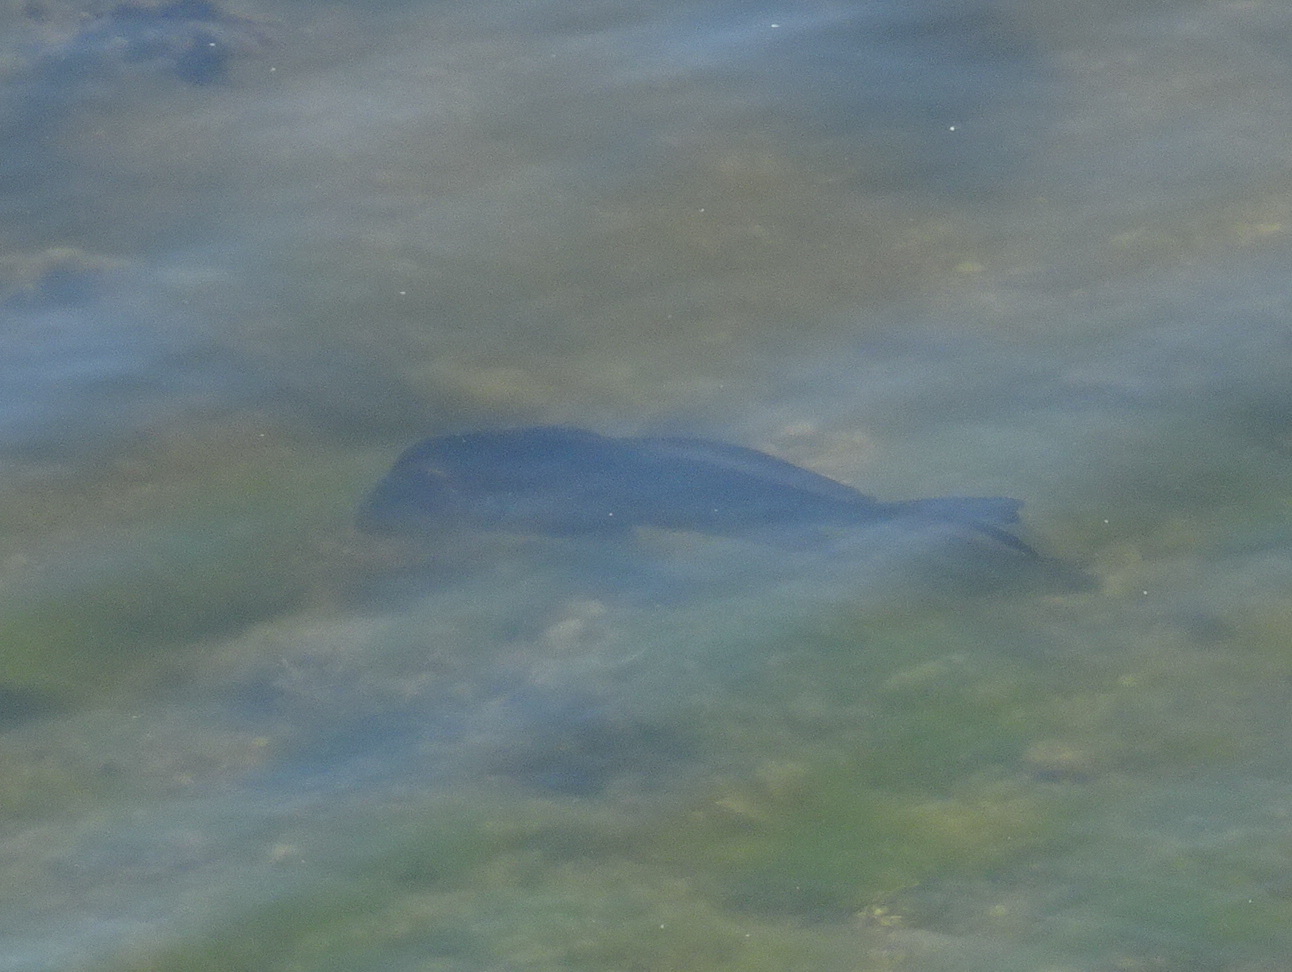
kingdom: Animalia
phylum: Chordata
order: Perciformes
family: Sciaenidae
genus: Aplodinotus
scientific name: Aplodinotus grunniens
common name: Freshwater drum
